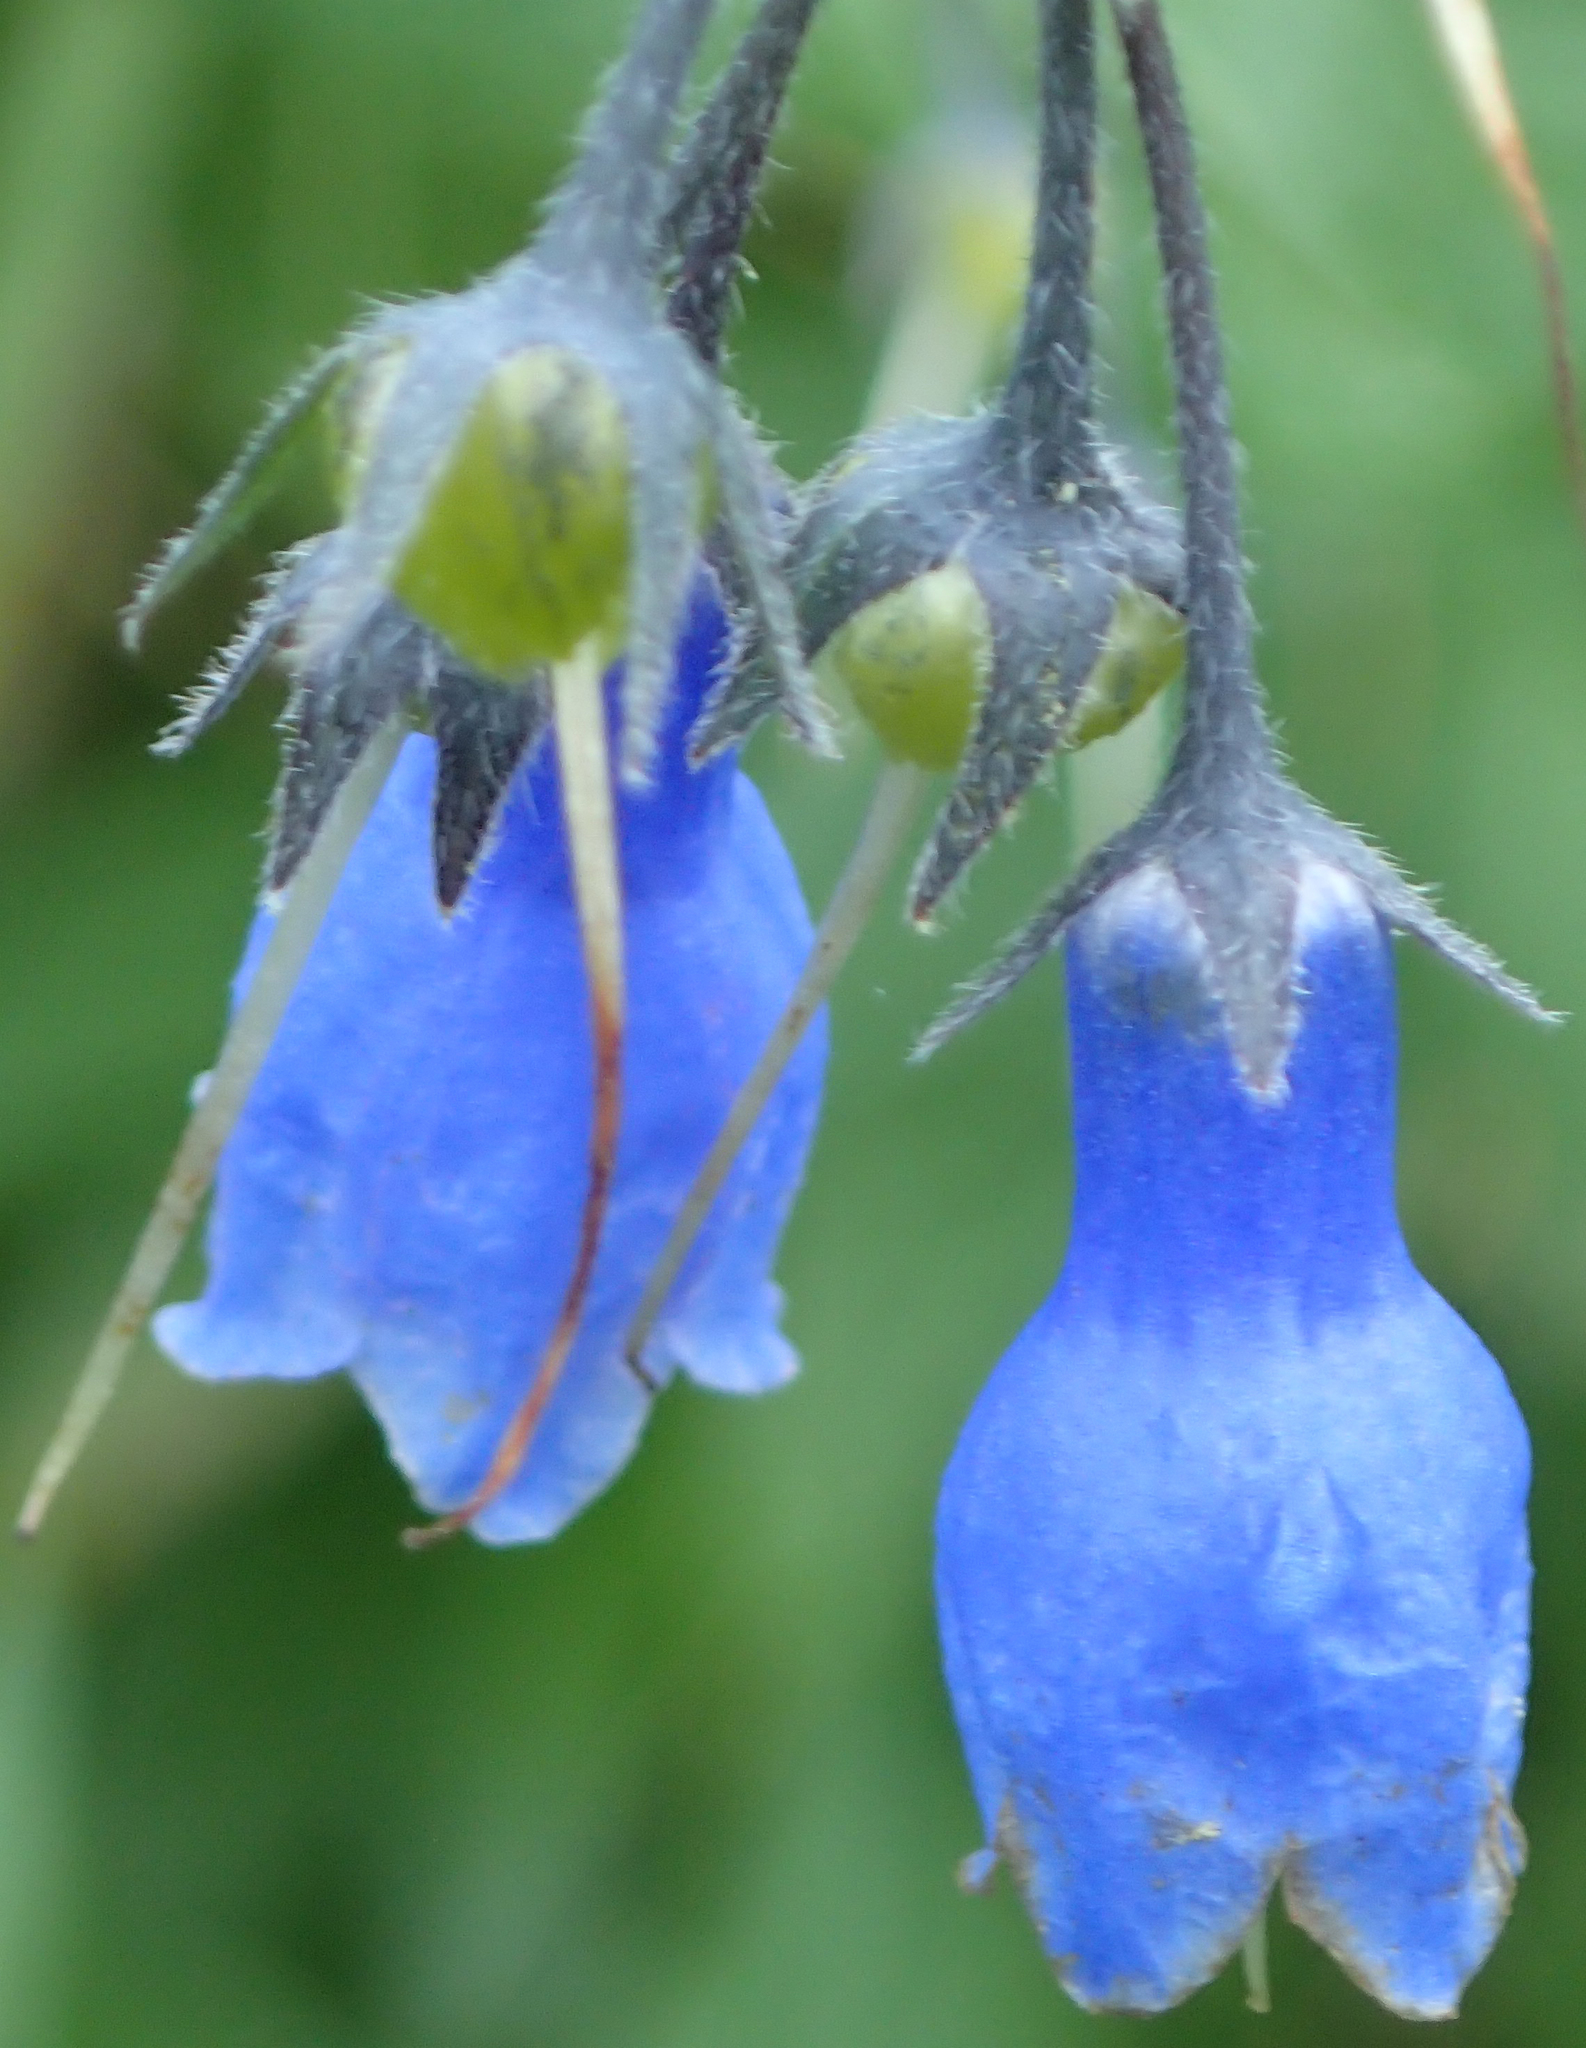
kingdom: Plantae
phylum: Tracheophyta
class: Magnoliopsida
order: Boraginales
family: Boraginaceae
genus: Mertensia
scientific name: Mertensia paniculata
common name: Panicled bluebells
